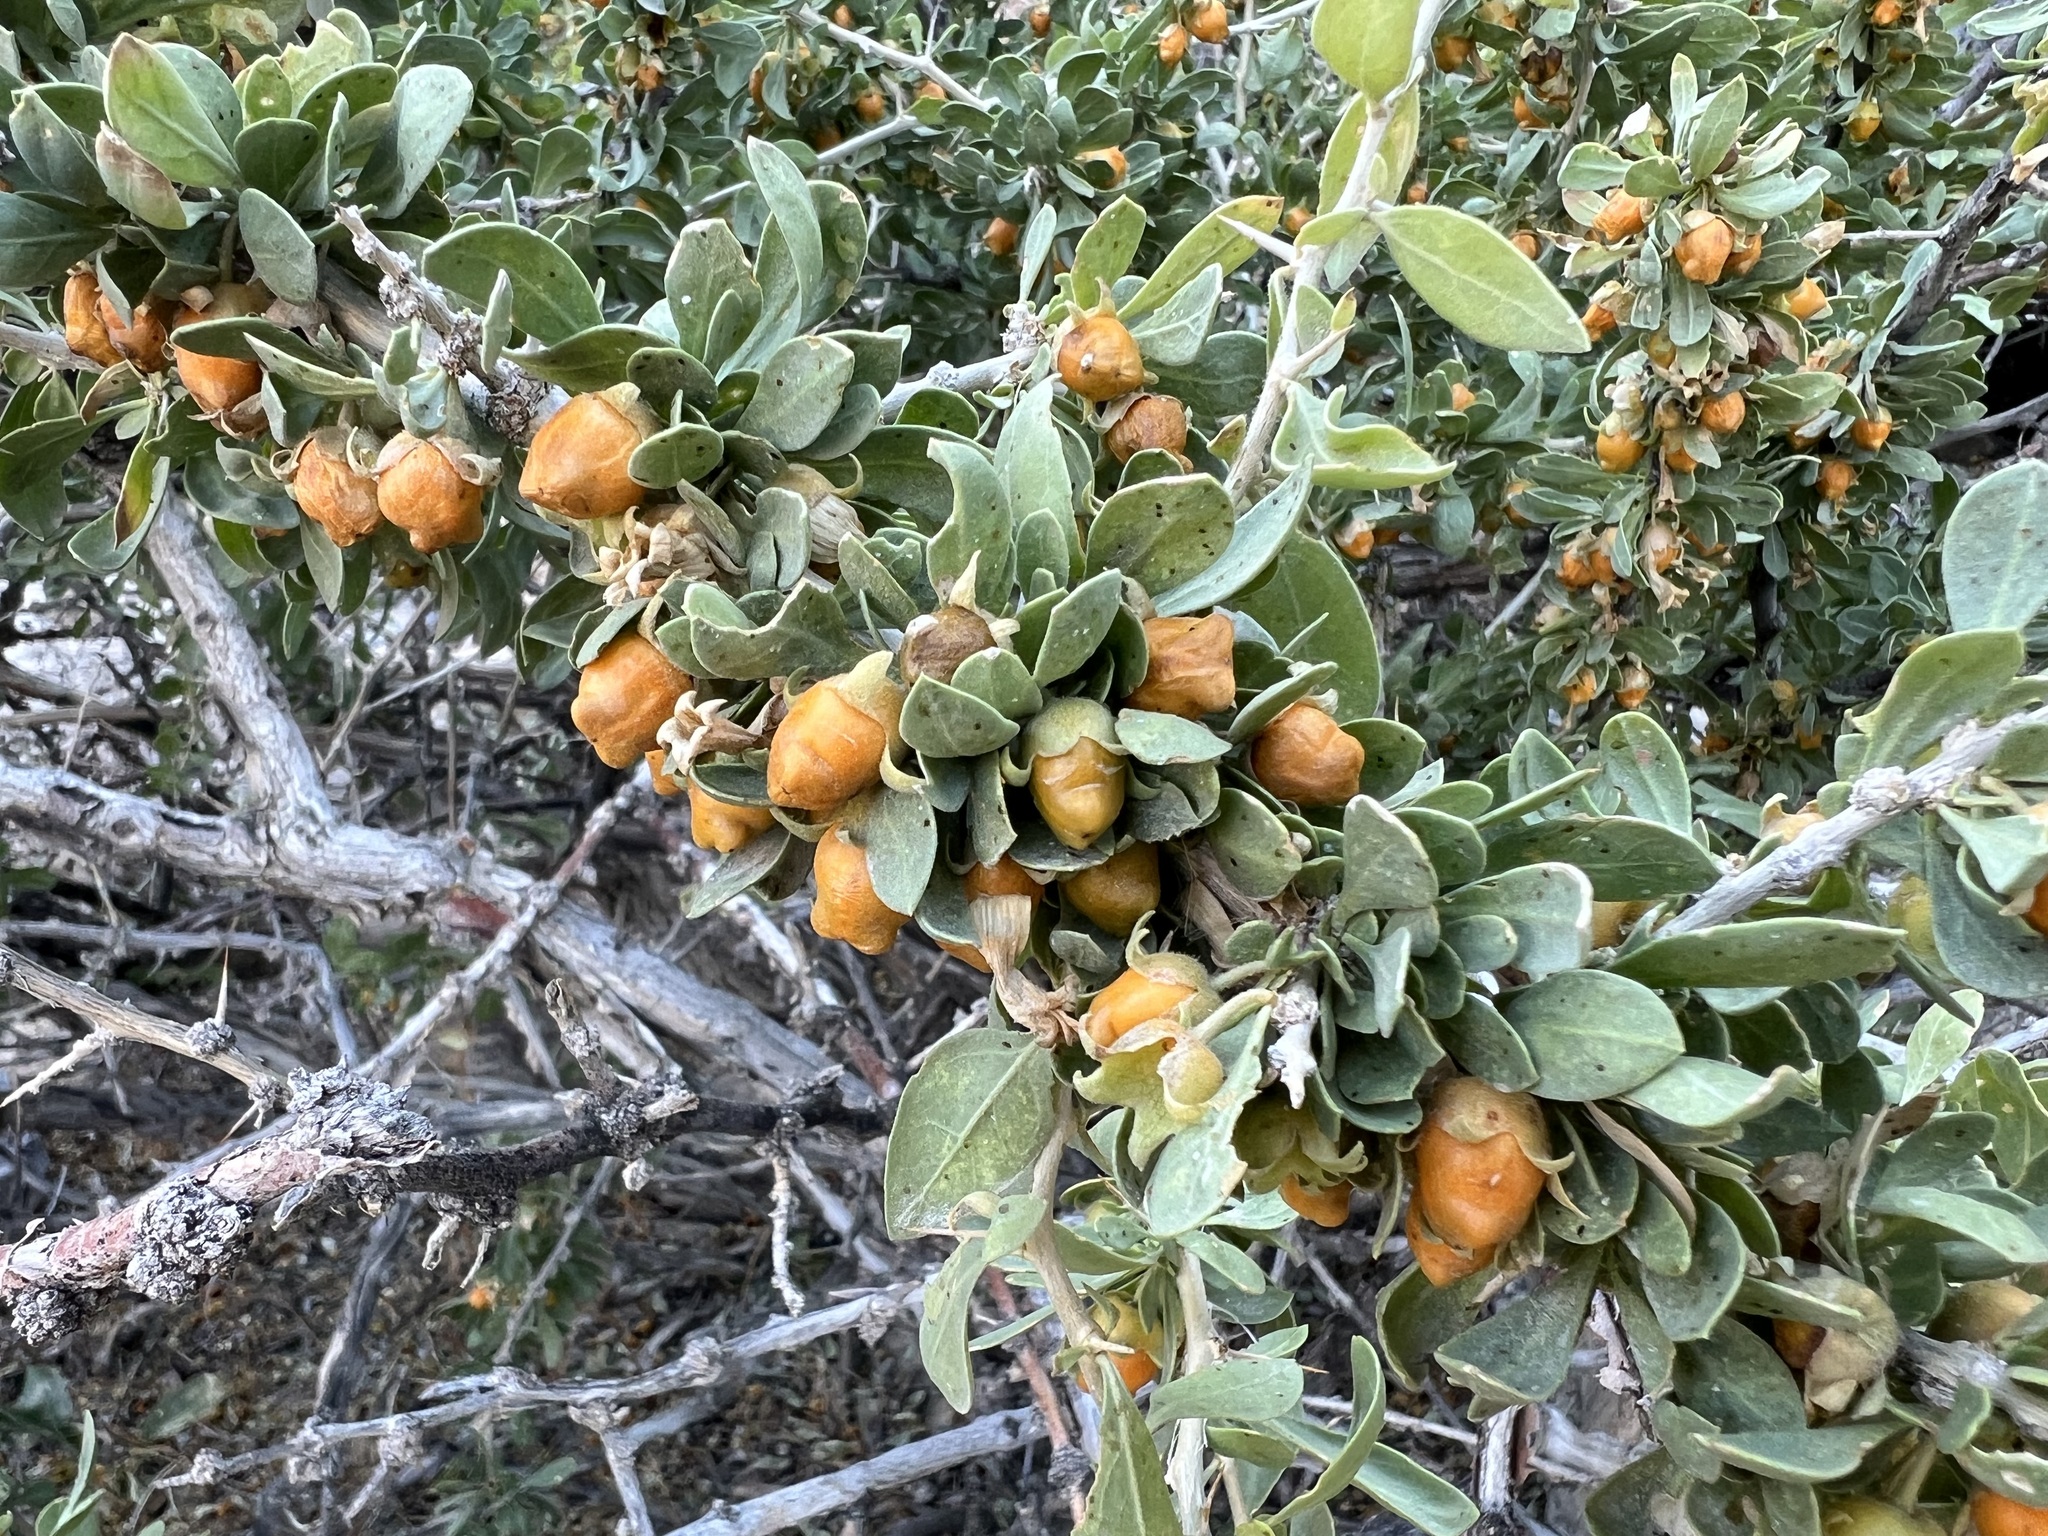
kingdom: Plantae
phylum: Tracheophyta
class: Magnoliopsida
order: Solanales
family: Solanaceae
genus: Lycium
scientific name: Lycium cooperi
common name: Peachthorn
